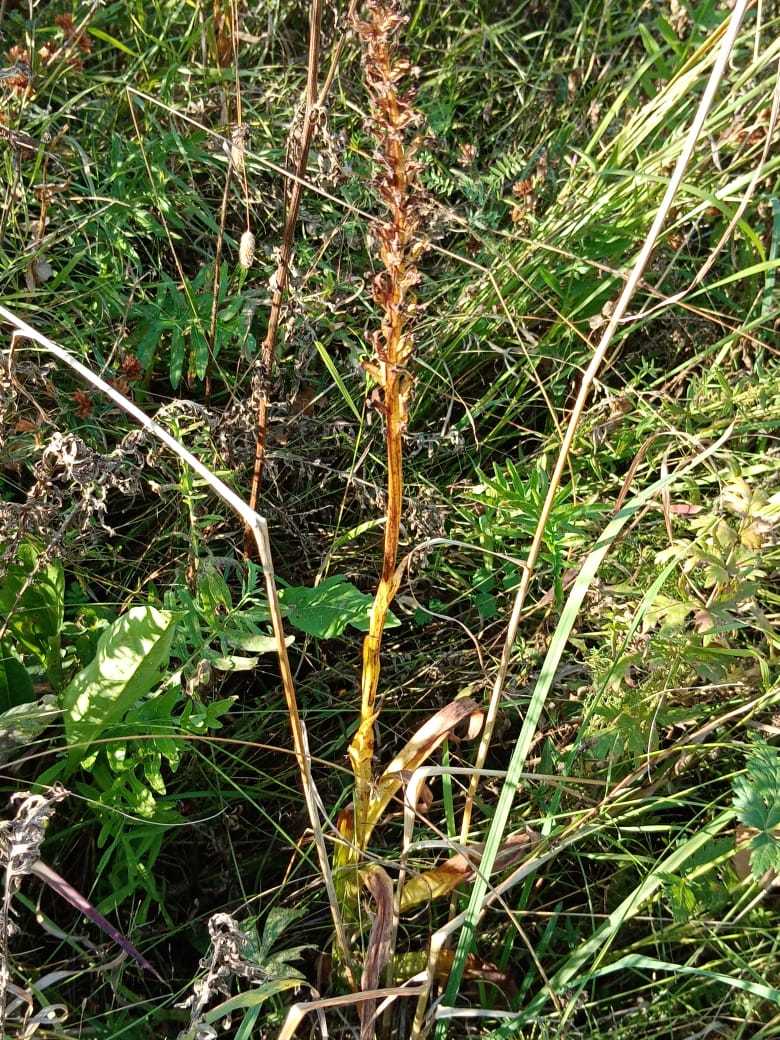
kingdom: Plantae
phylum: Tracheophyta
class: Liliopsida
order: Asparagales
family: Orchidaceae
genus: Gymnadenia
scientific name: Gymnadenia conopsea
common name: Fragrant orchid
